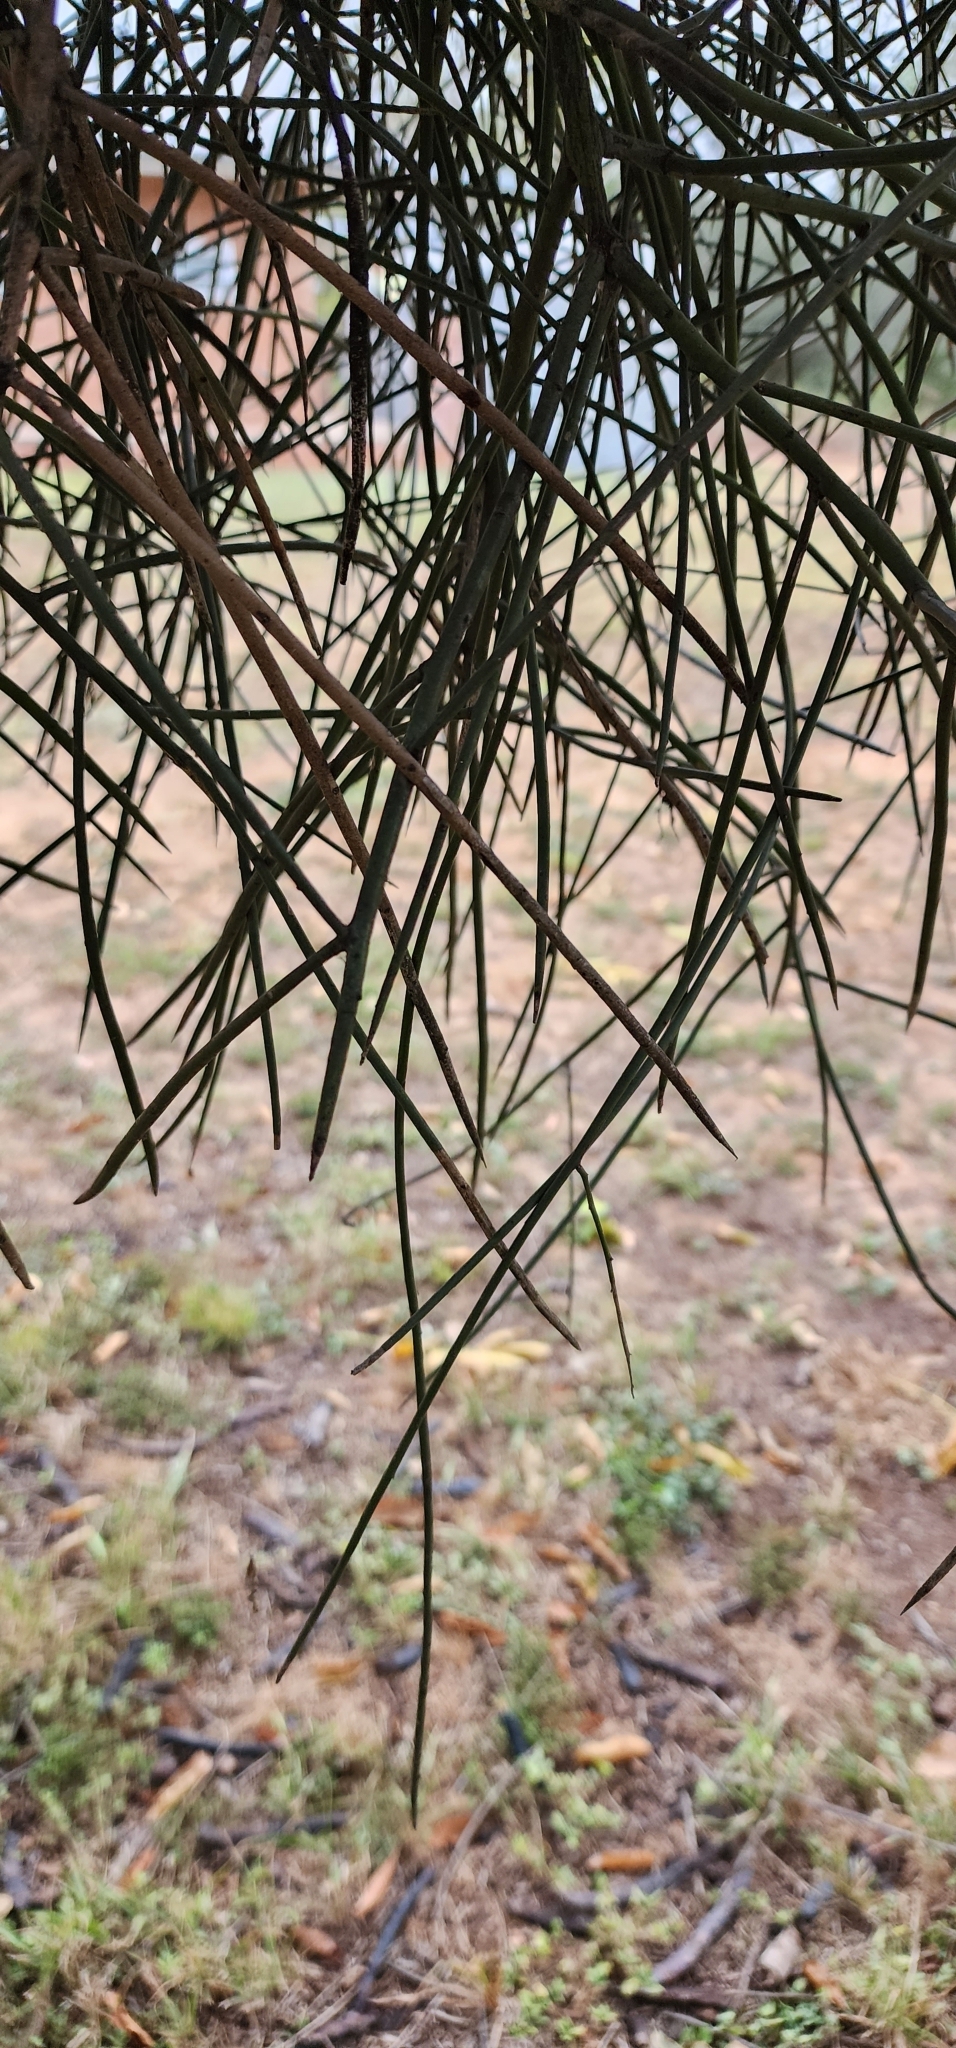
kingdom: Plantae
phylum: Tracheophyta
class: Magnoliopsida
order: Fabales
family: Fabaceae
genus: Prosopis
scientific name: Prosopis kuntzei
